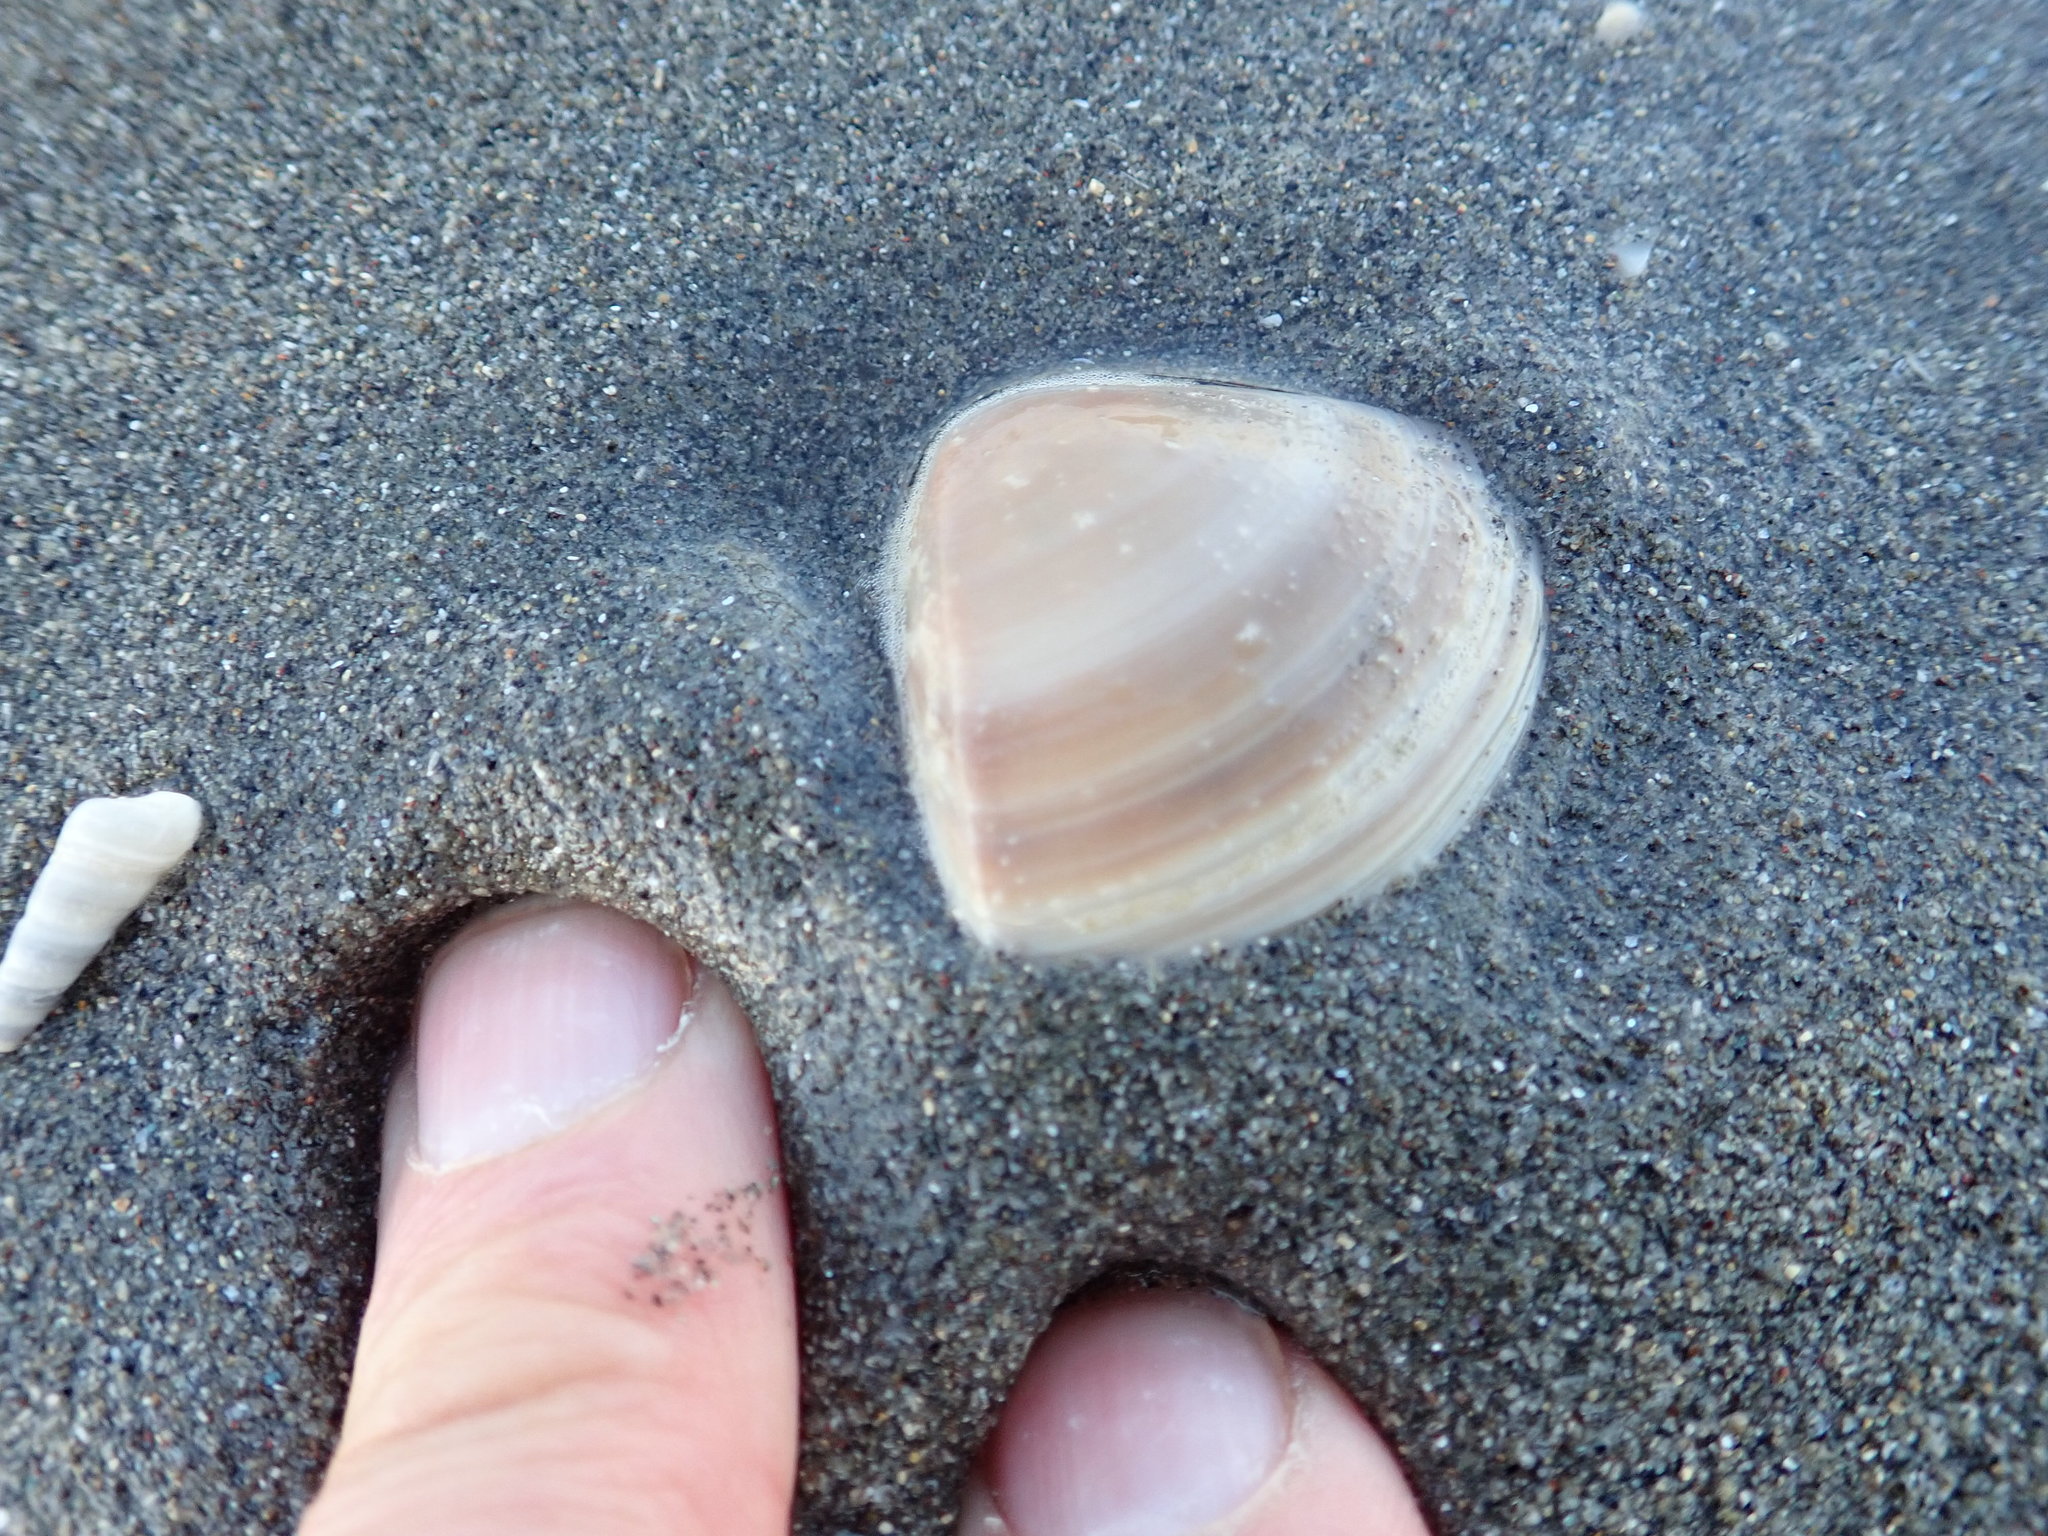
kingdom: Animalia
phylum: Mollusca
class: Bivalvia
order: Venerida
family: Mactridae
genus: Crassula
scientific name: Crassula aequilatera
